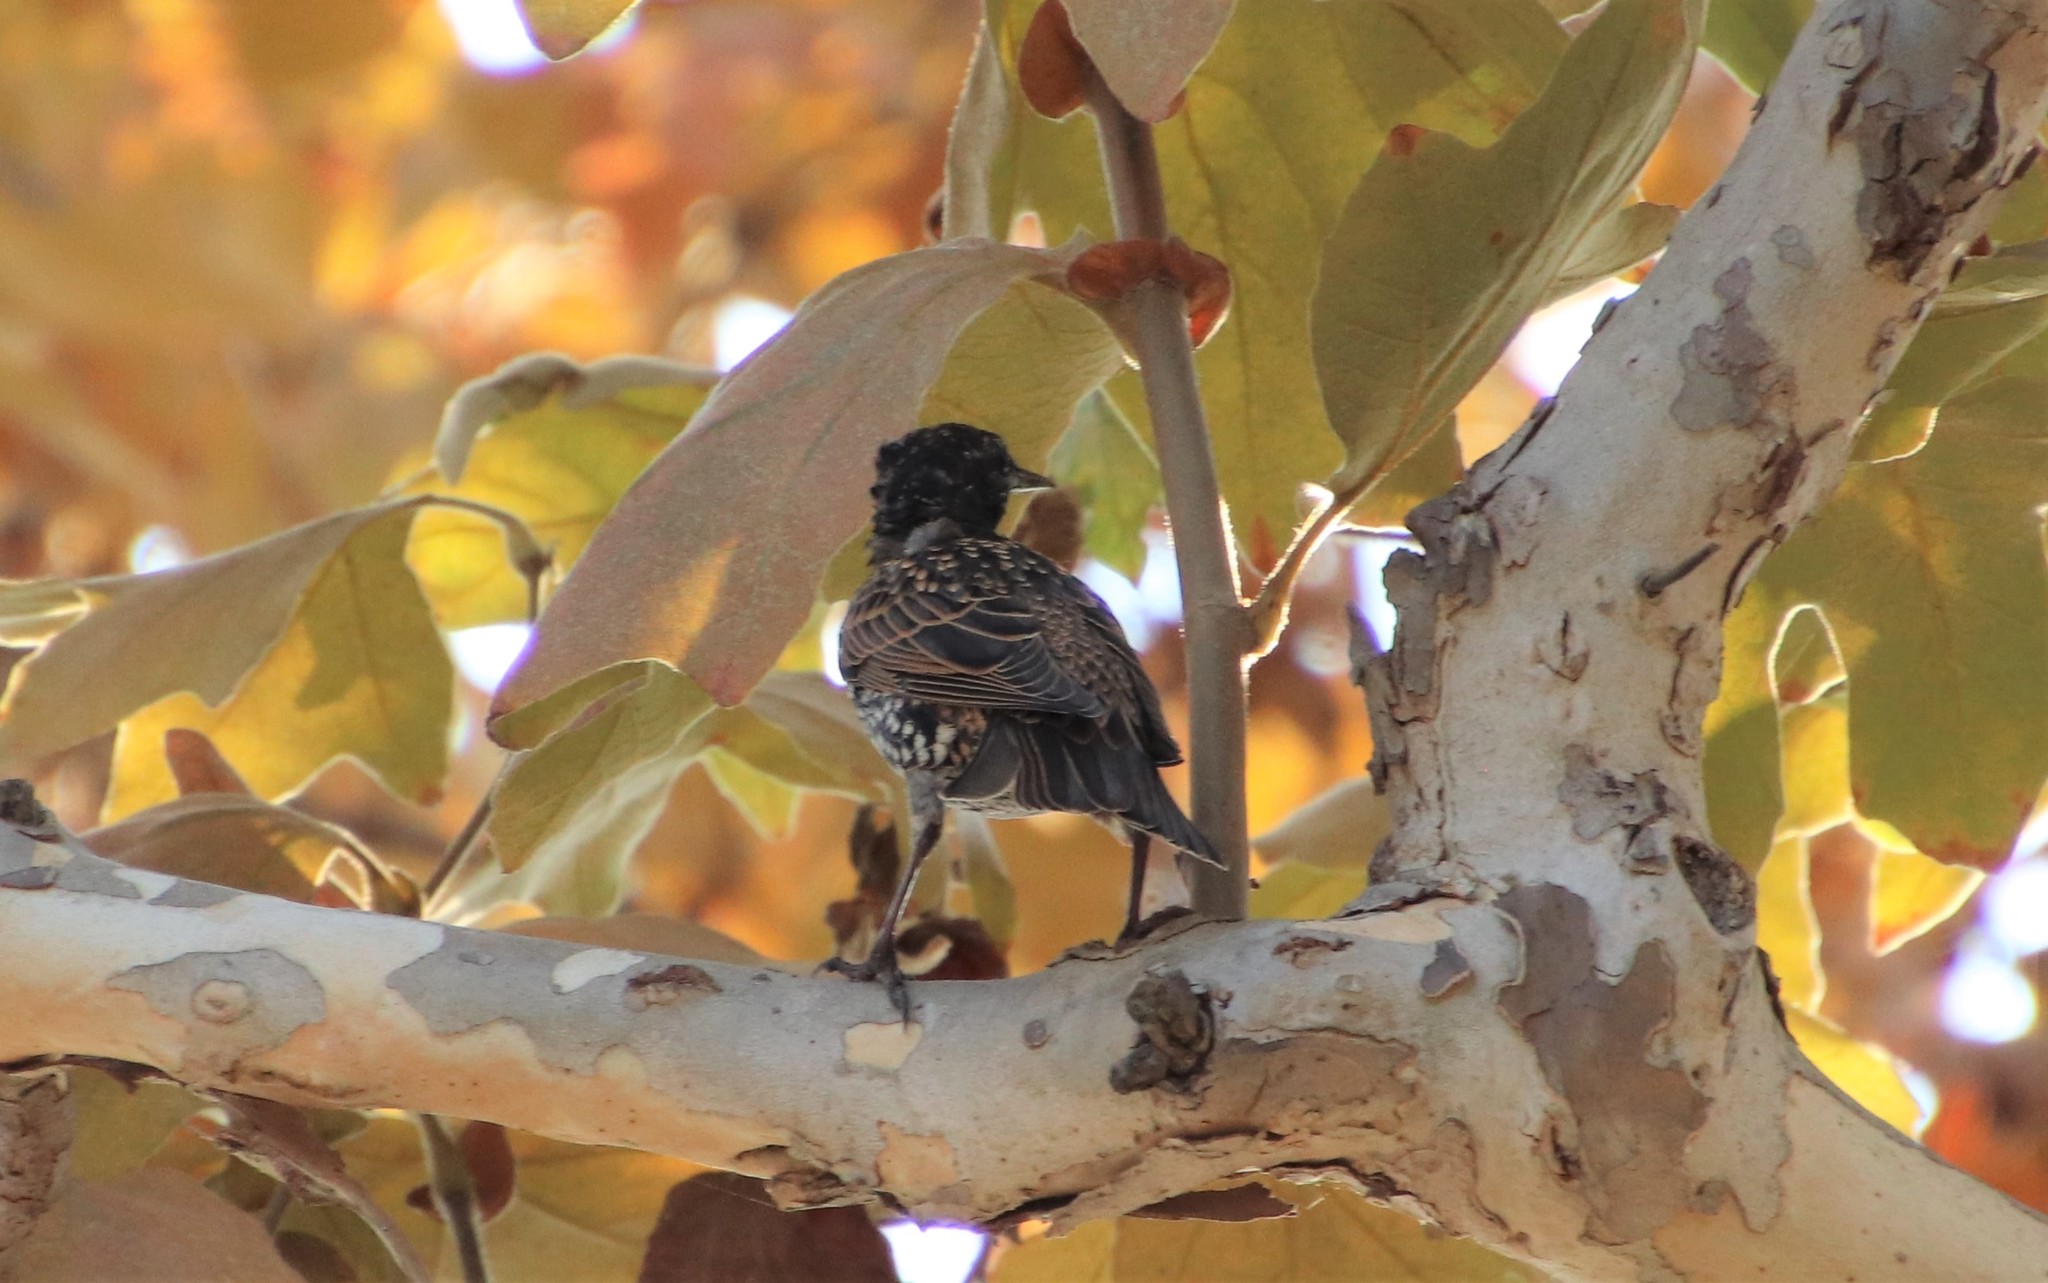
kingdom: Animalia
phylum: Chordata
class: Aves
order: Passeriformes
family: Sturnidae
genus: Sturnus
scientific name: Sturnus vulgaris
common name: Common starling
